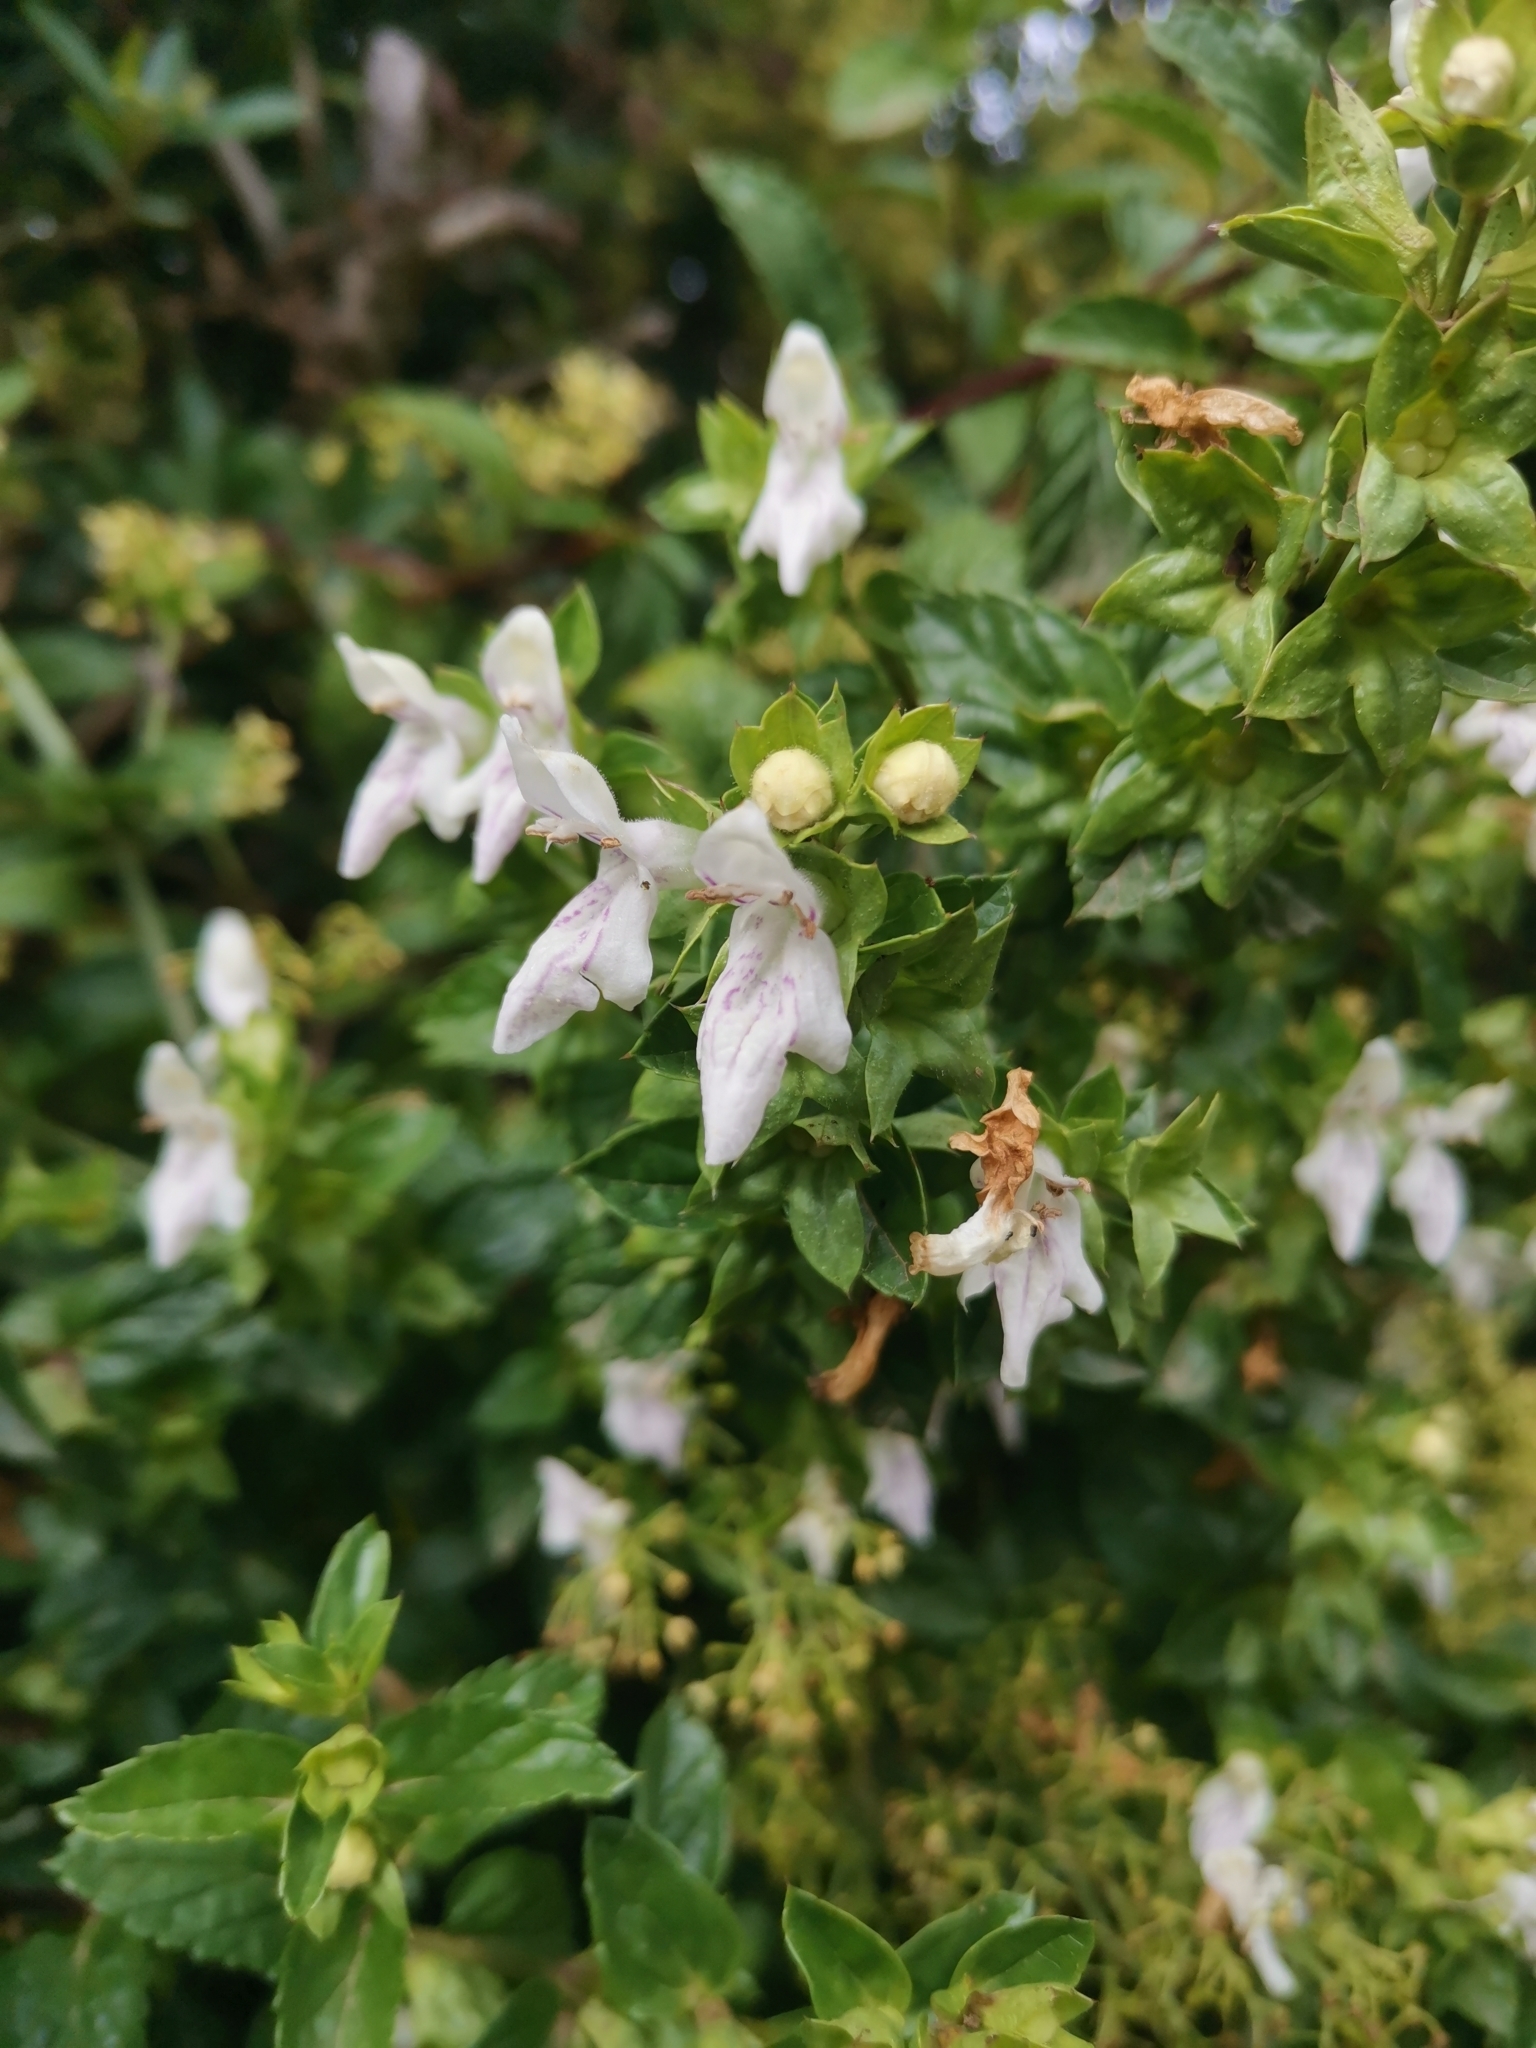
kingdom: Plantae
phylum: Tracheophyta
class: Magnoliopsida
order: Lamiales
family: Lamiaceae
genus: Prasium
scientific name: Prasium majus
